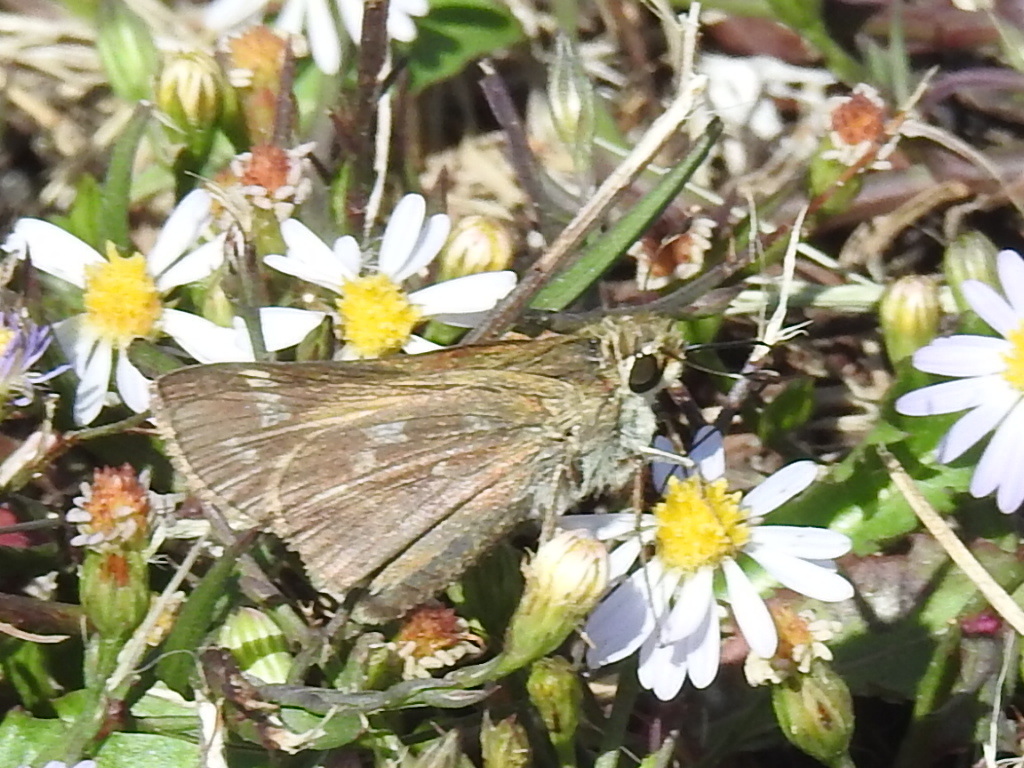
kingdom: Animalia
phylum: Arthropoda
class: Insecta
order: Lepidoptera
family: Hesperiidae
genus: Atalopedes
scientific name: Atalopedes
